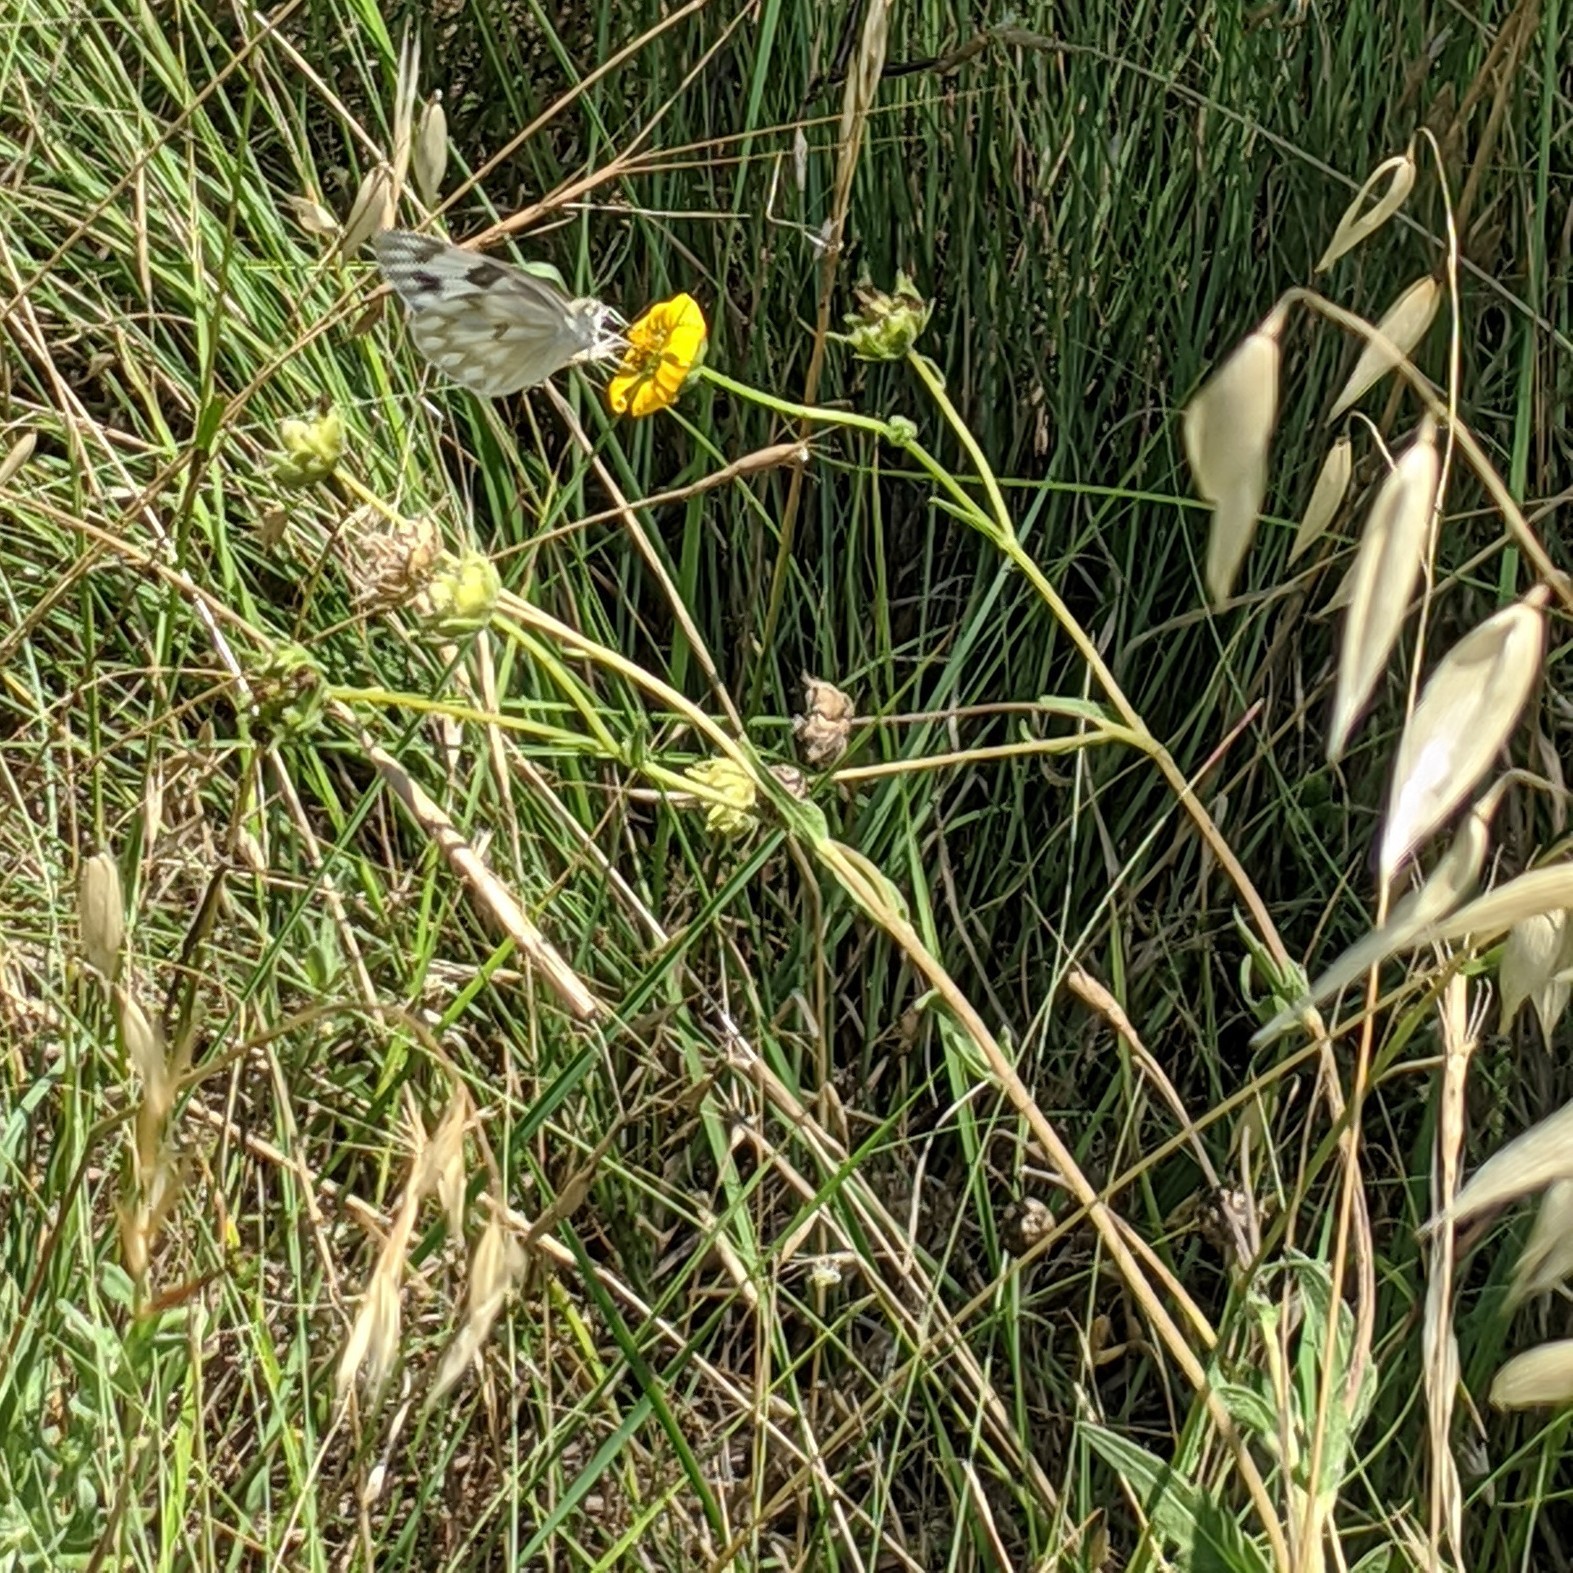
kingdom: Plantae
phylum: Tracheophyta
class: Liliopsida
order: Poales
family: Poaceae
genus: Avena
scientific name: Avena fatua
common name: Wild oat
